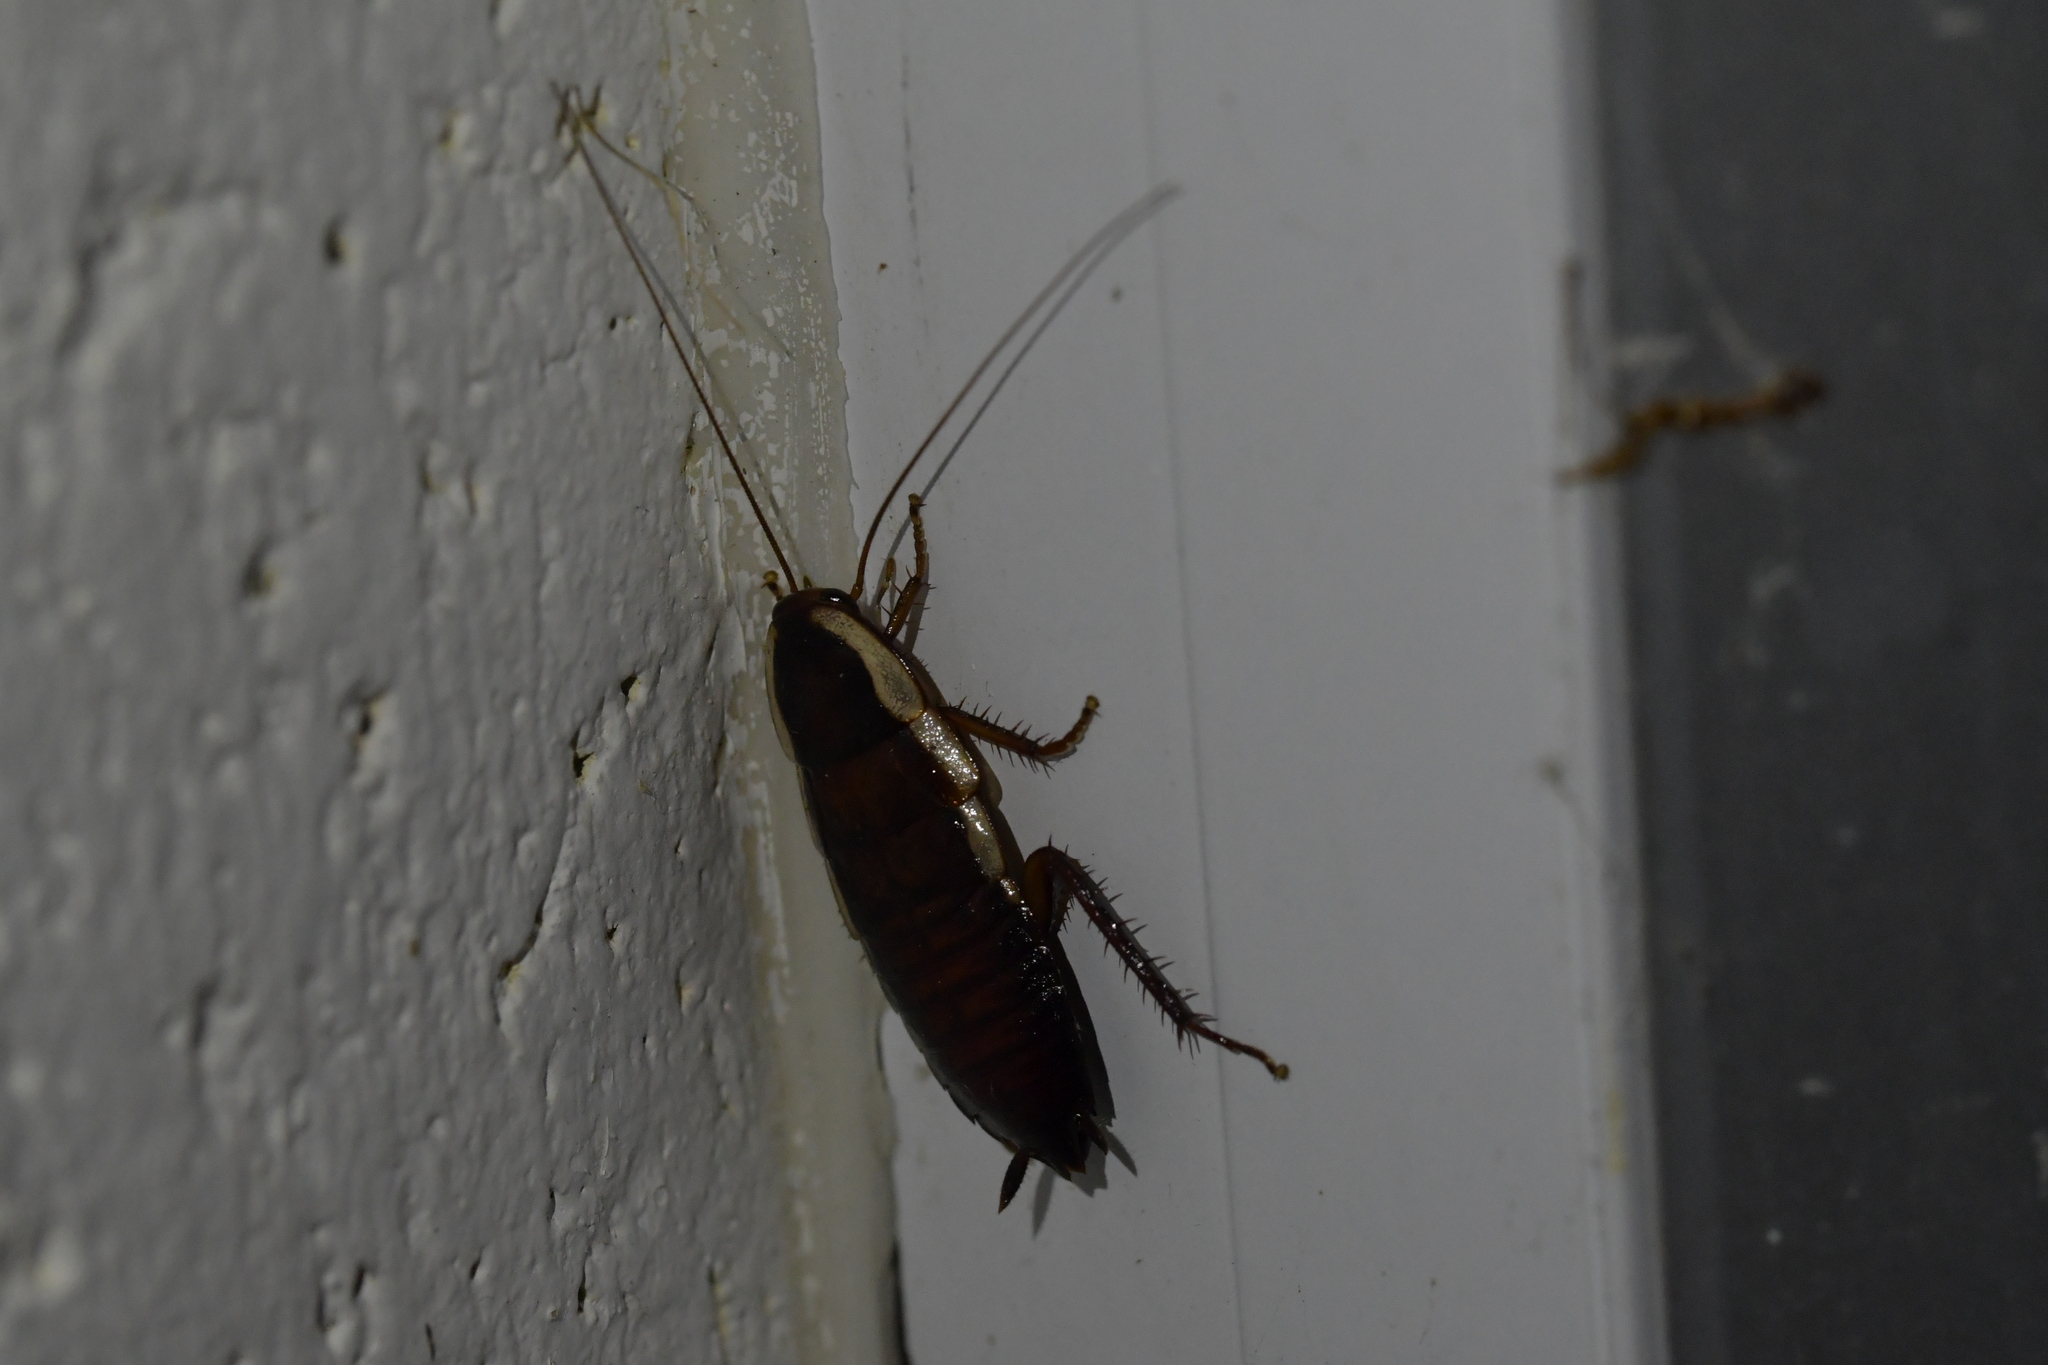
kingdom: Animalia
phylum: Arthropoda
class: Insecta
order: Blattodea
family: Blattidae
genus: Drymaplaneta
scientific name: Drymaplaneta semivitta
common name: Gisborne cockroach
